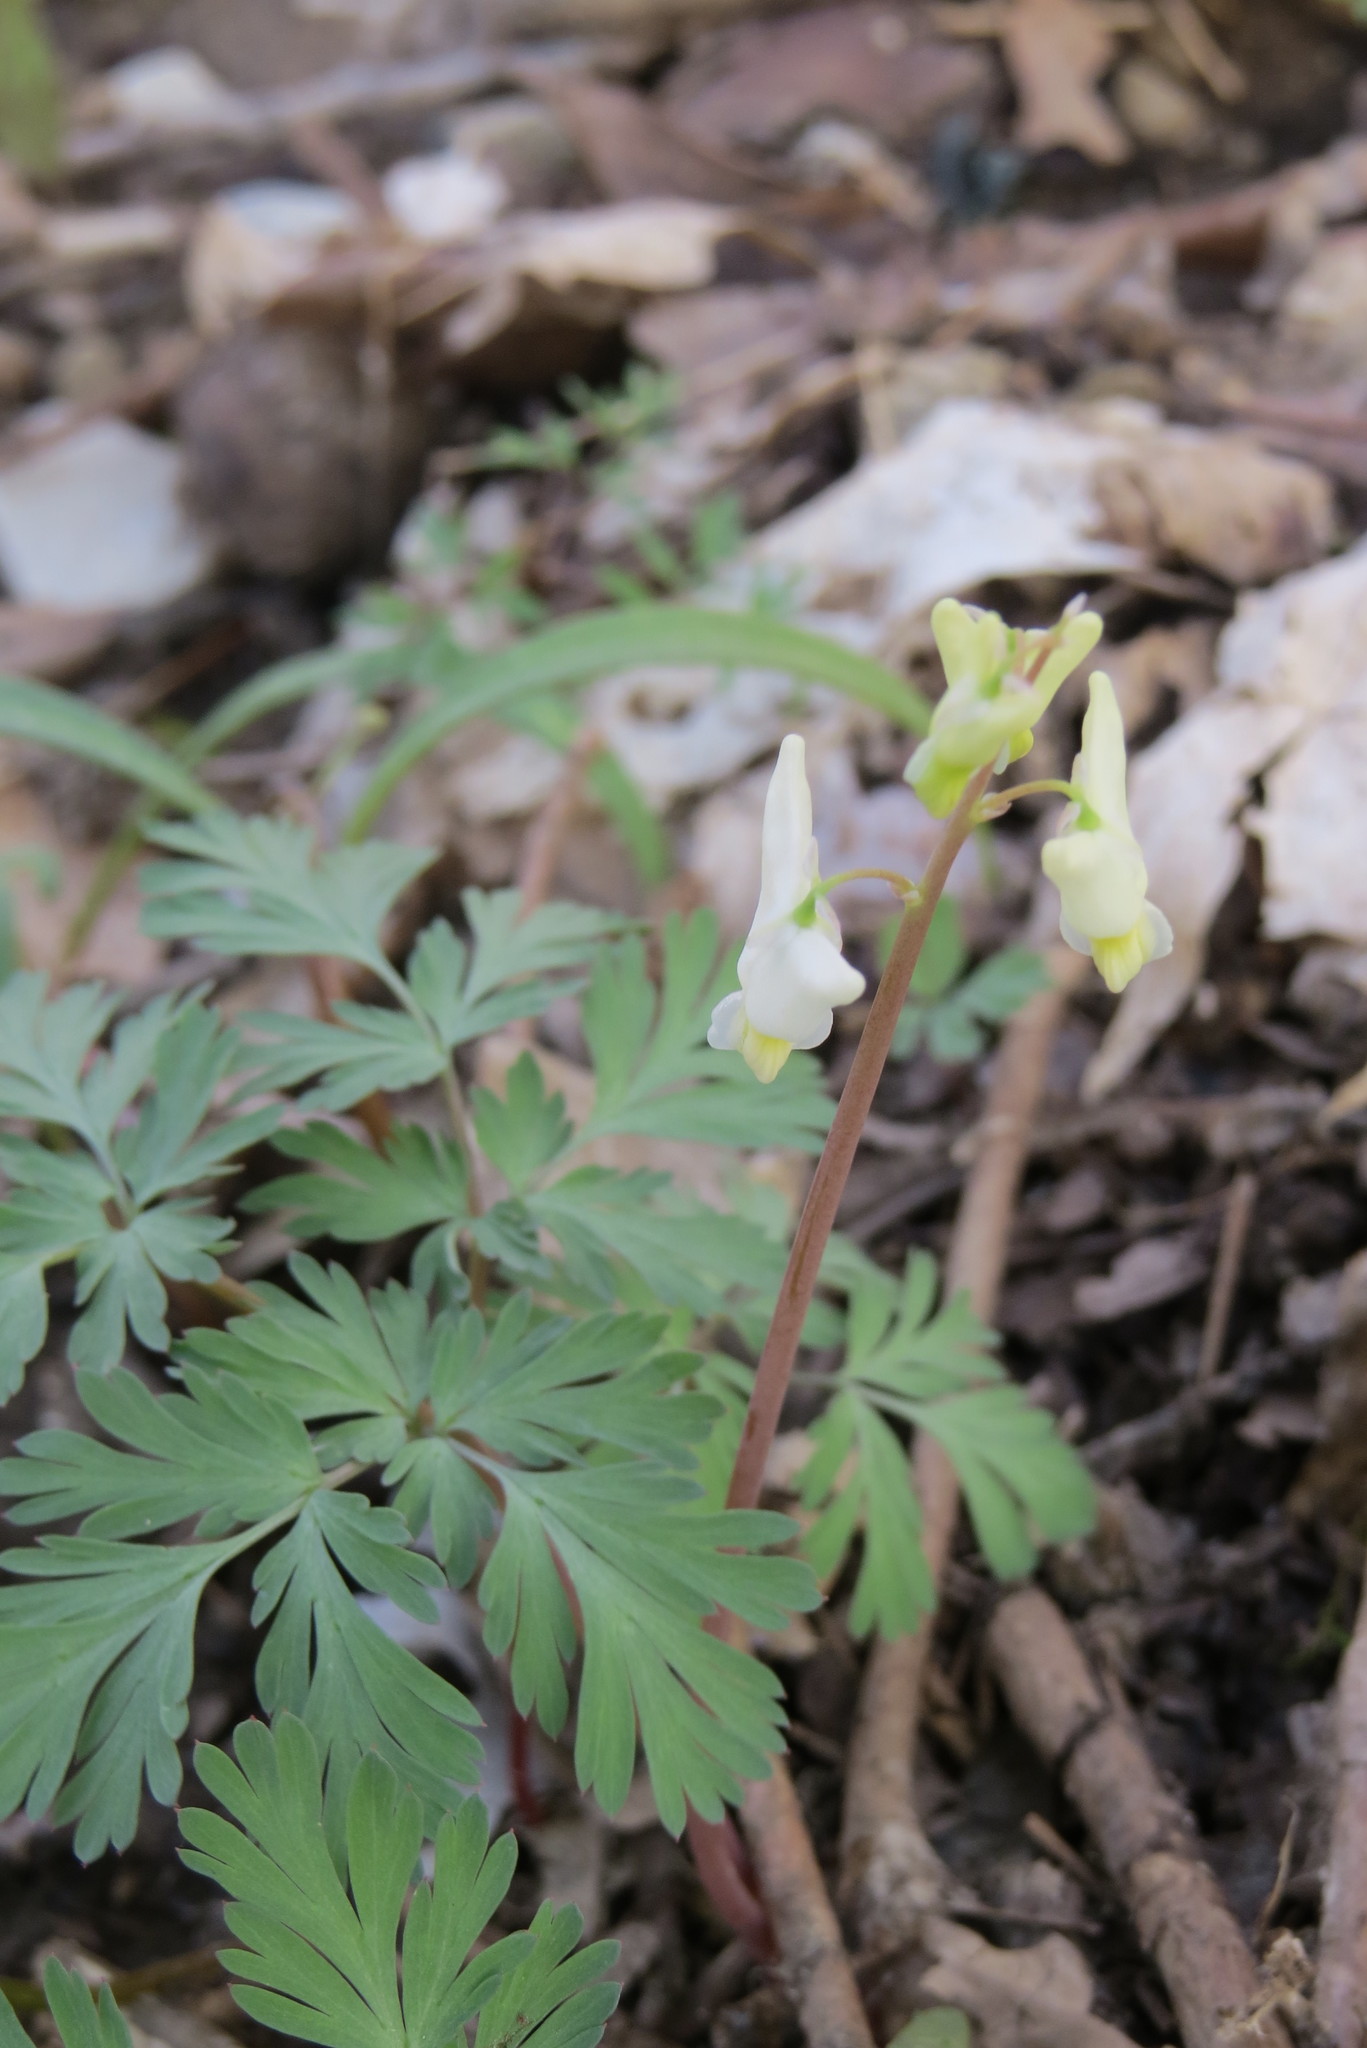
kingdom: Plantae
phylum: Tracheophyta
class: Magnoliopsida
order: Ranunculales
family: Papaveraceae
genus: Dicentra
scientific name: Dicentra cucullaria
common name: Dutchman's breeches
